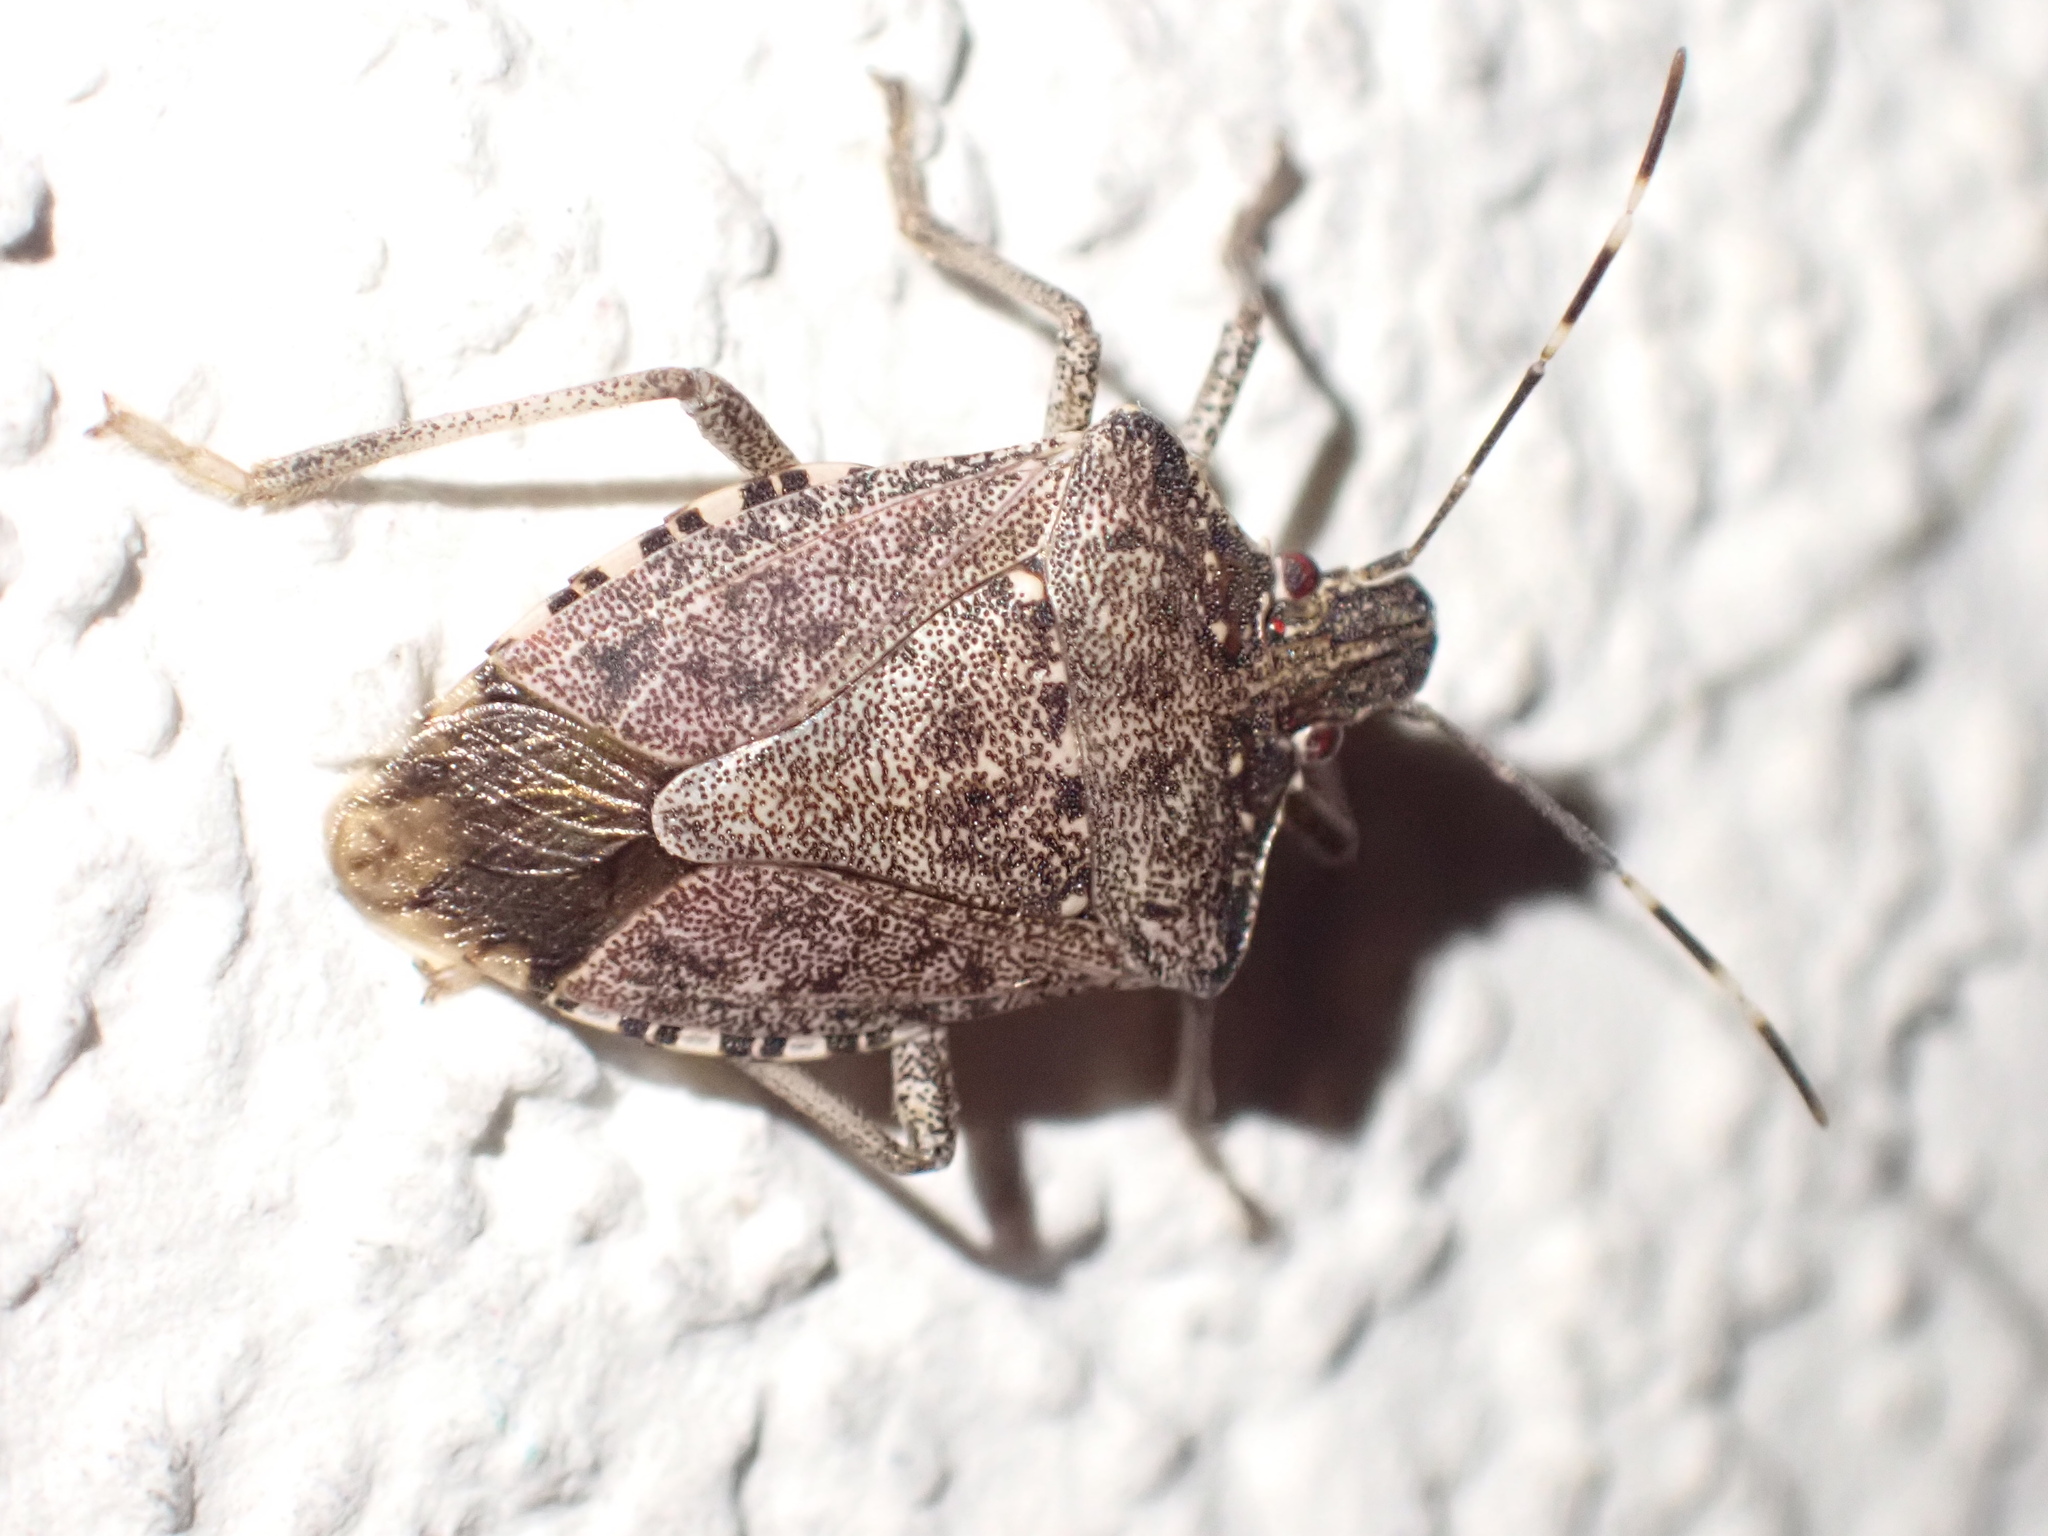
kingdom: Animalia
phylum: Arthropoda
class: Insecta
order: Hemiptera
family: Pentatomidae
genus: Halyomorpha
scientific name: Halyomorpha halys
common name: Brown marmorated stink bug
